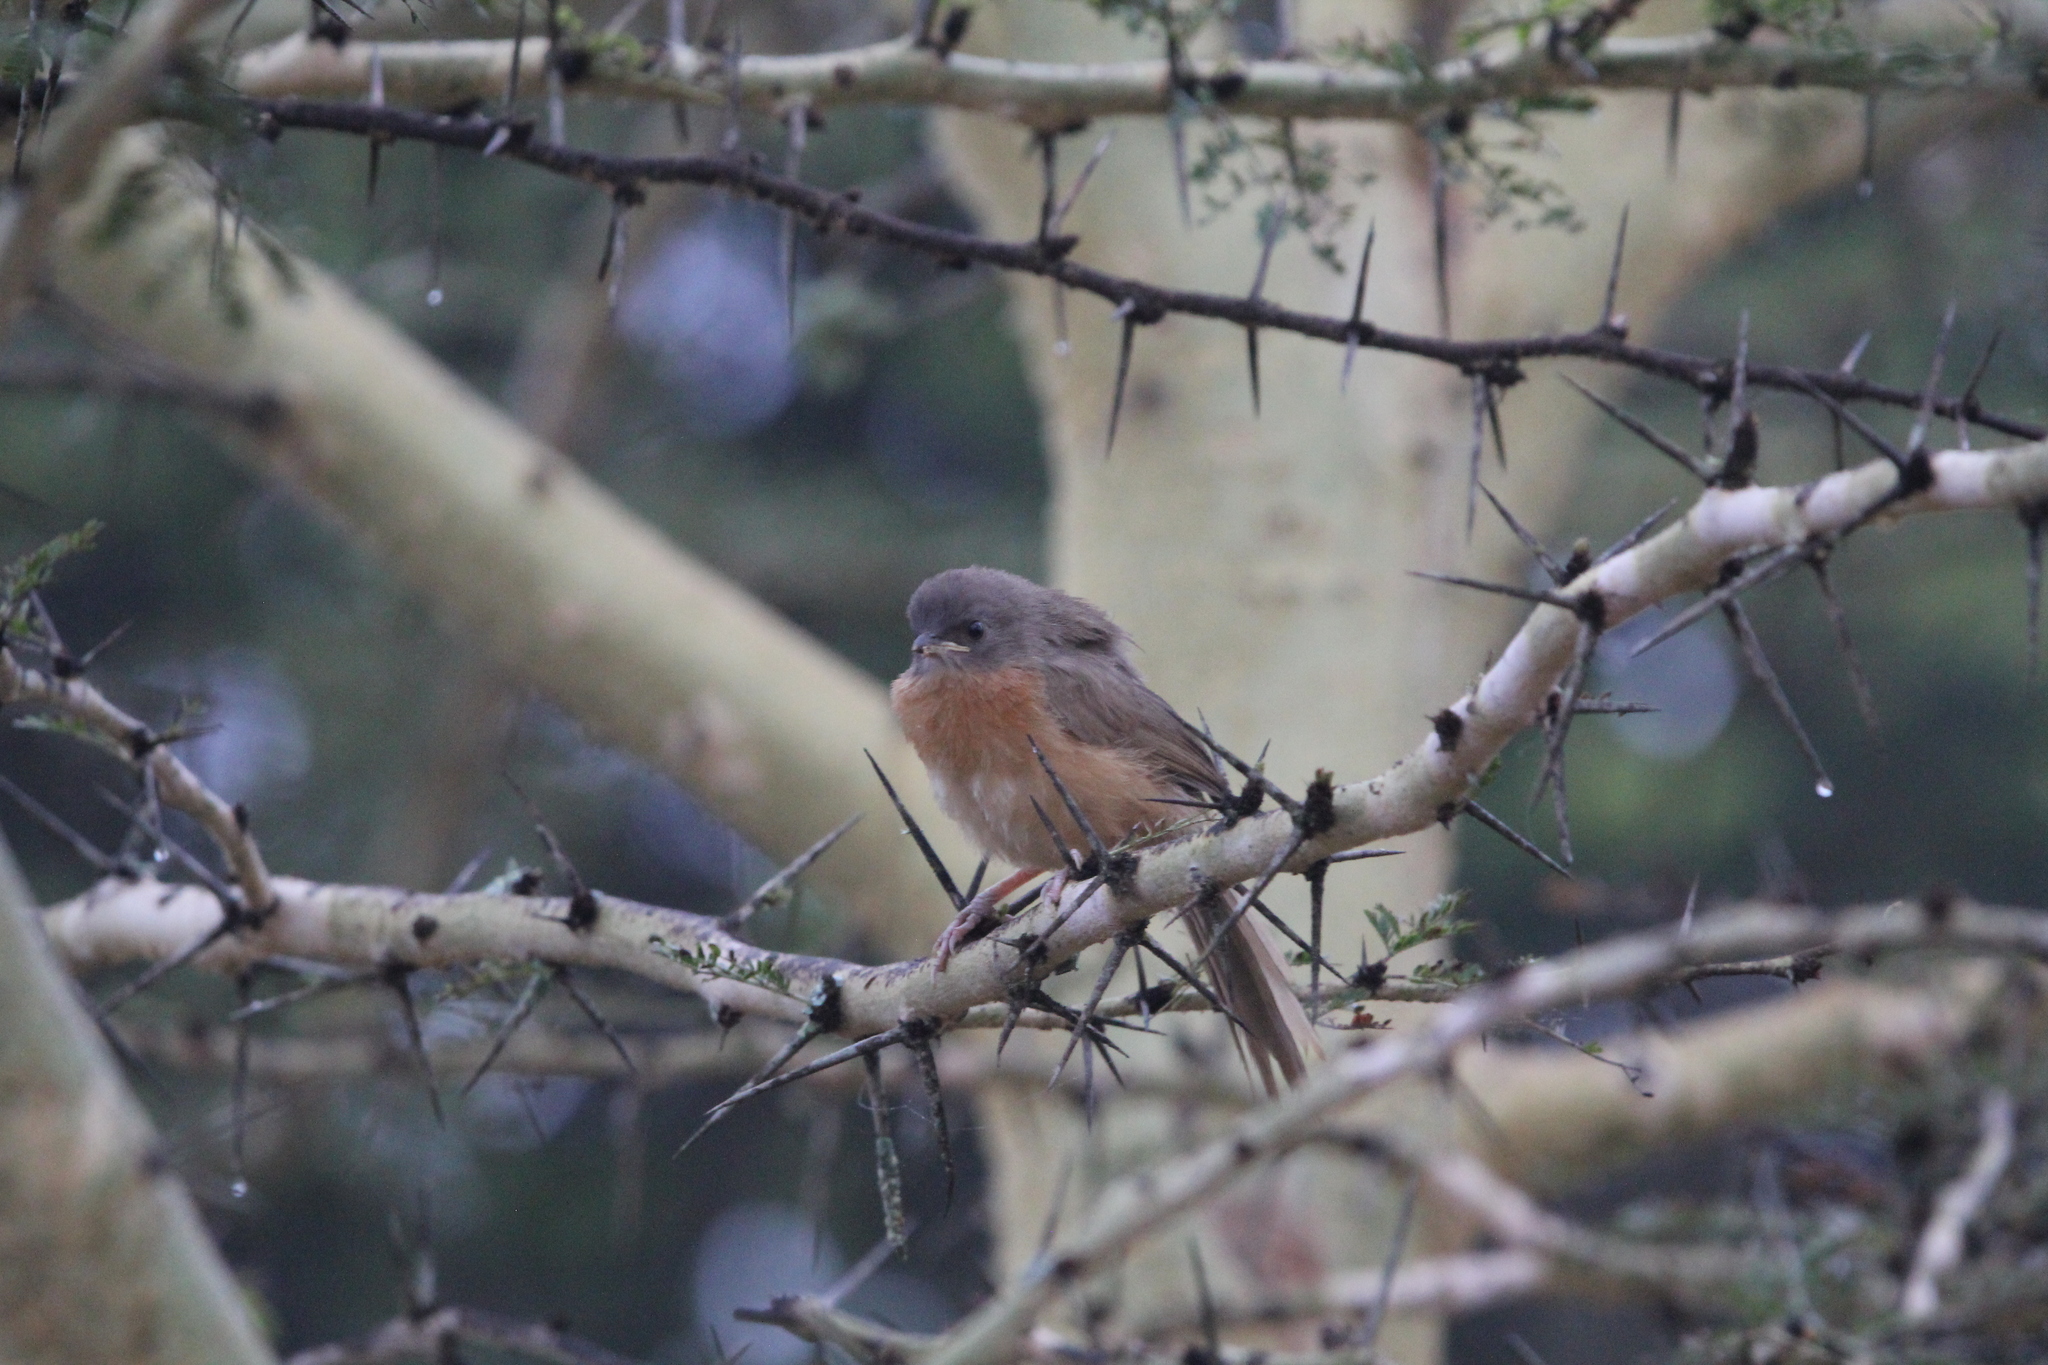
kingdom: Animalia
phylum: Chordata
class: Aves
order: Passeriformes
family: Leiothrichidae
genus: Turdoides
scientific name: Turdoides rubiginosa
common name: Rufous chatterer
